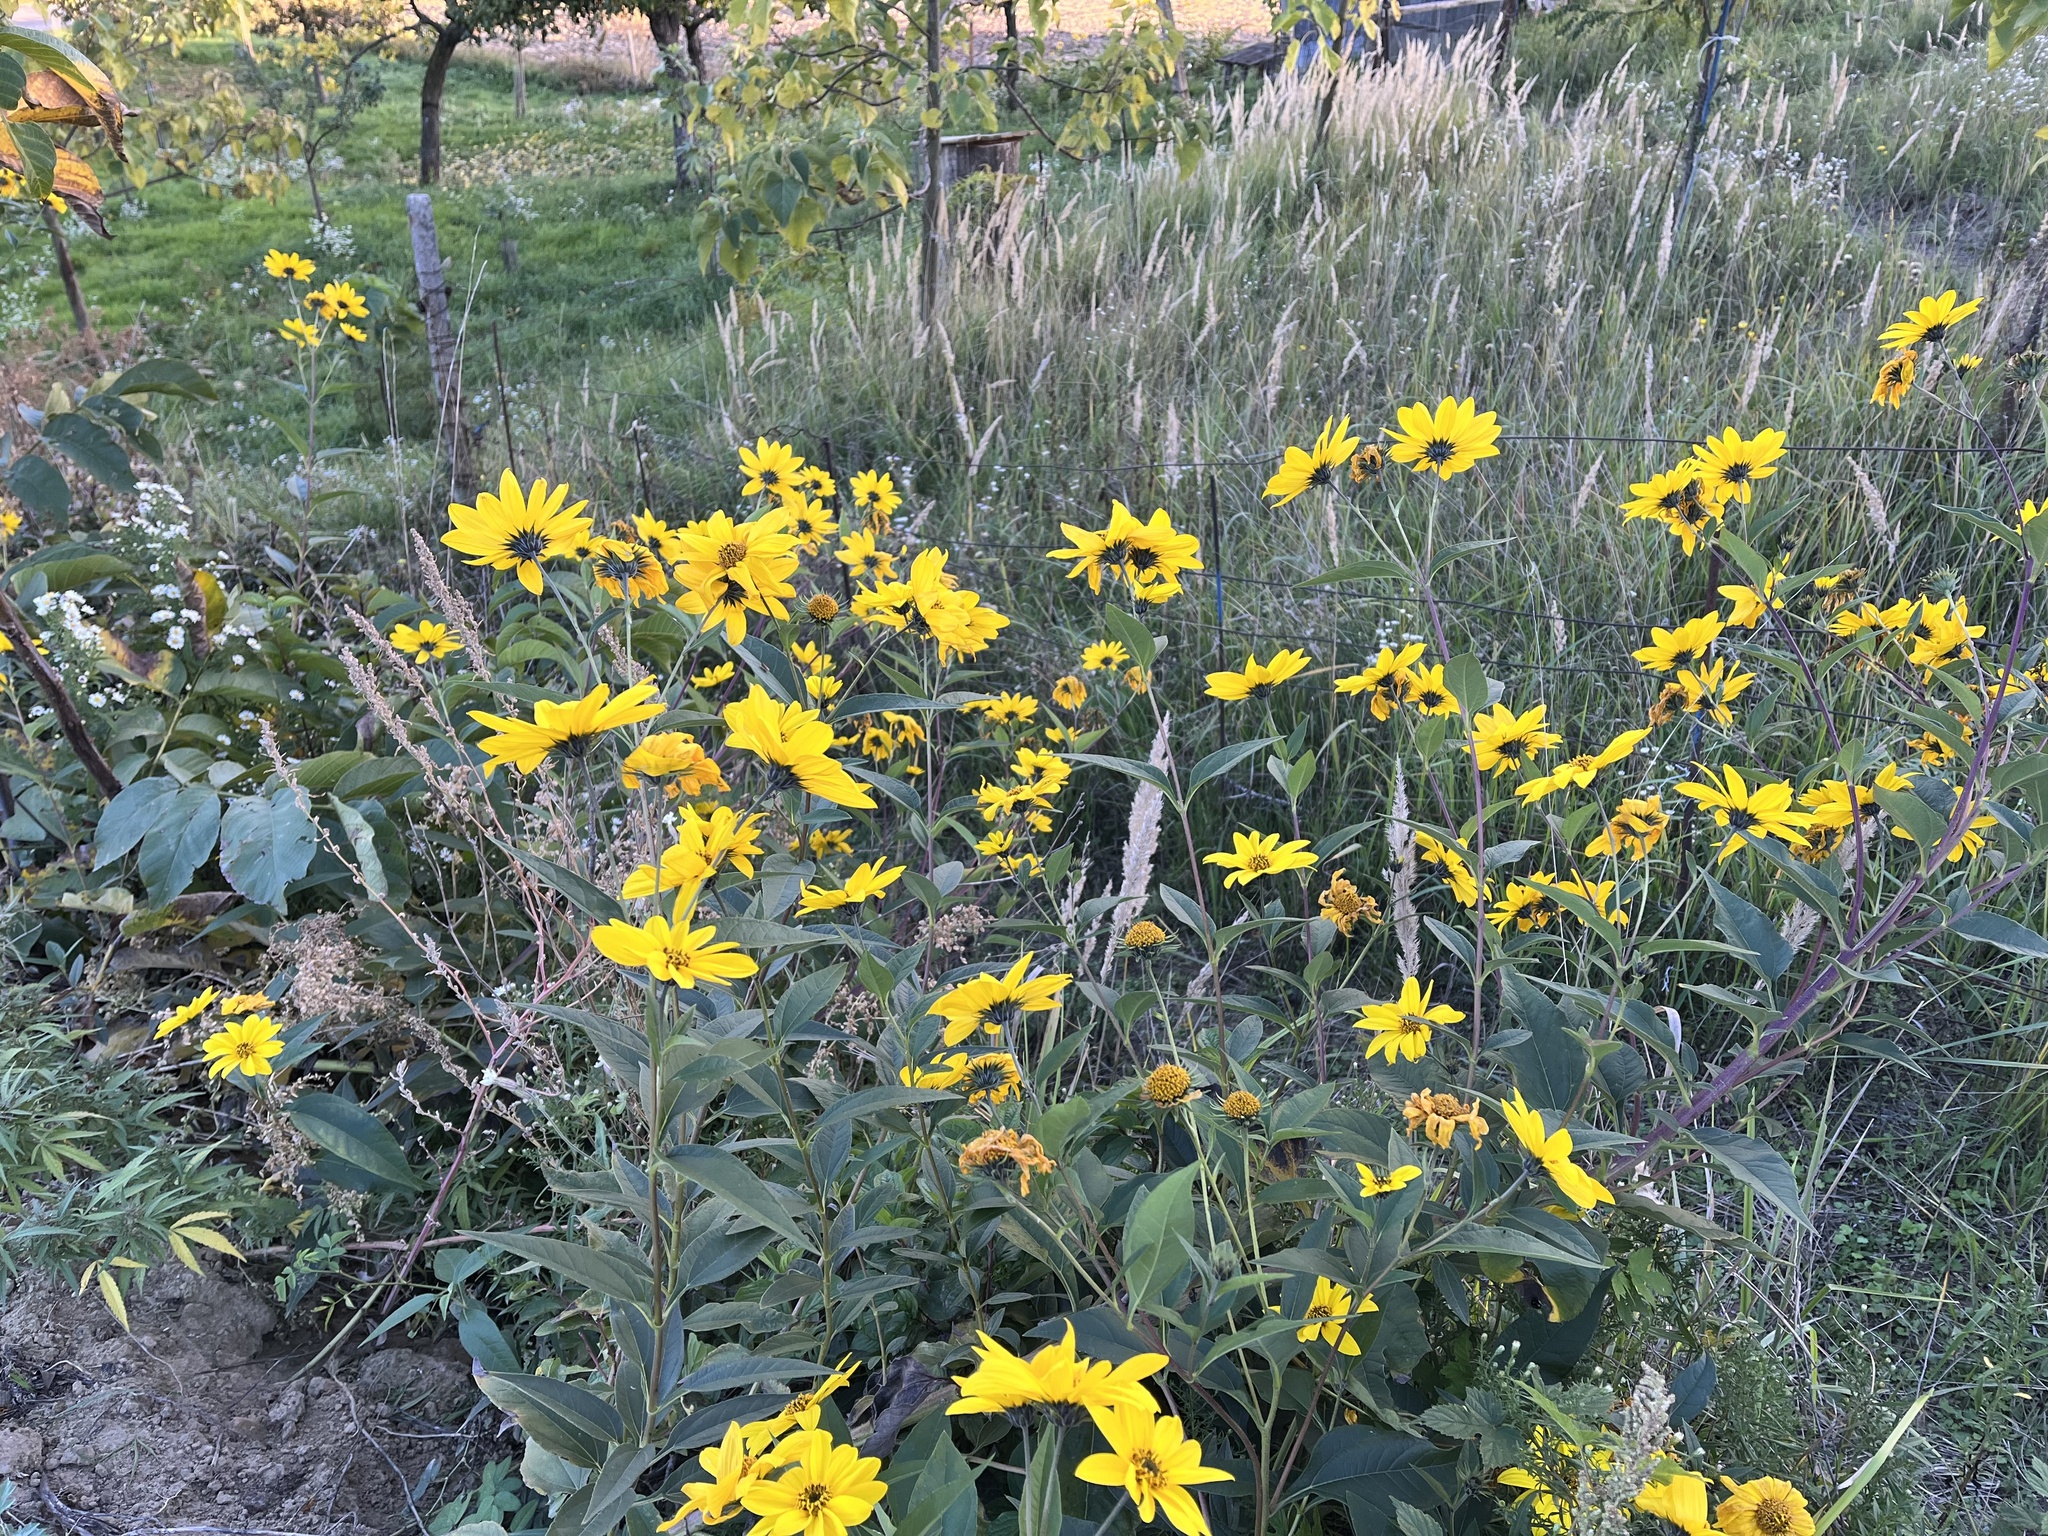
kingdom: Plantae
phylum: Tracheophyta
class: Magnoliopsida
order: Asterales
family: Asteraceae
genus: Helianthus
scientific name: Helianthus tuberosus
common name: Jerusalem artichoke
